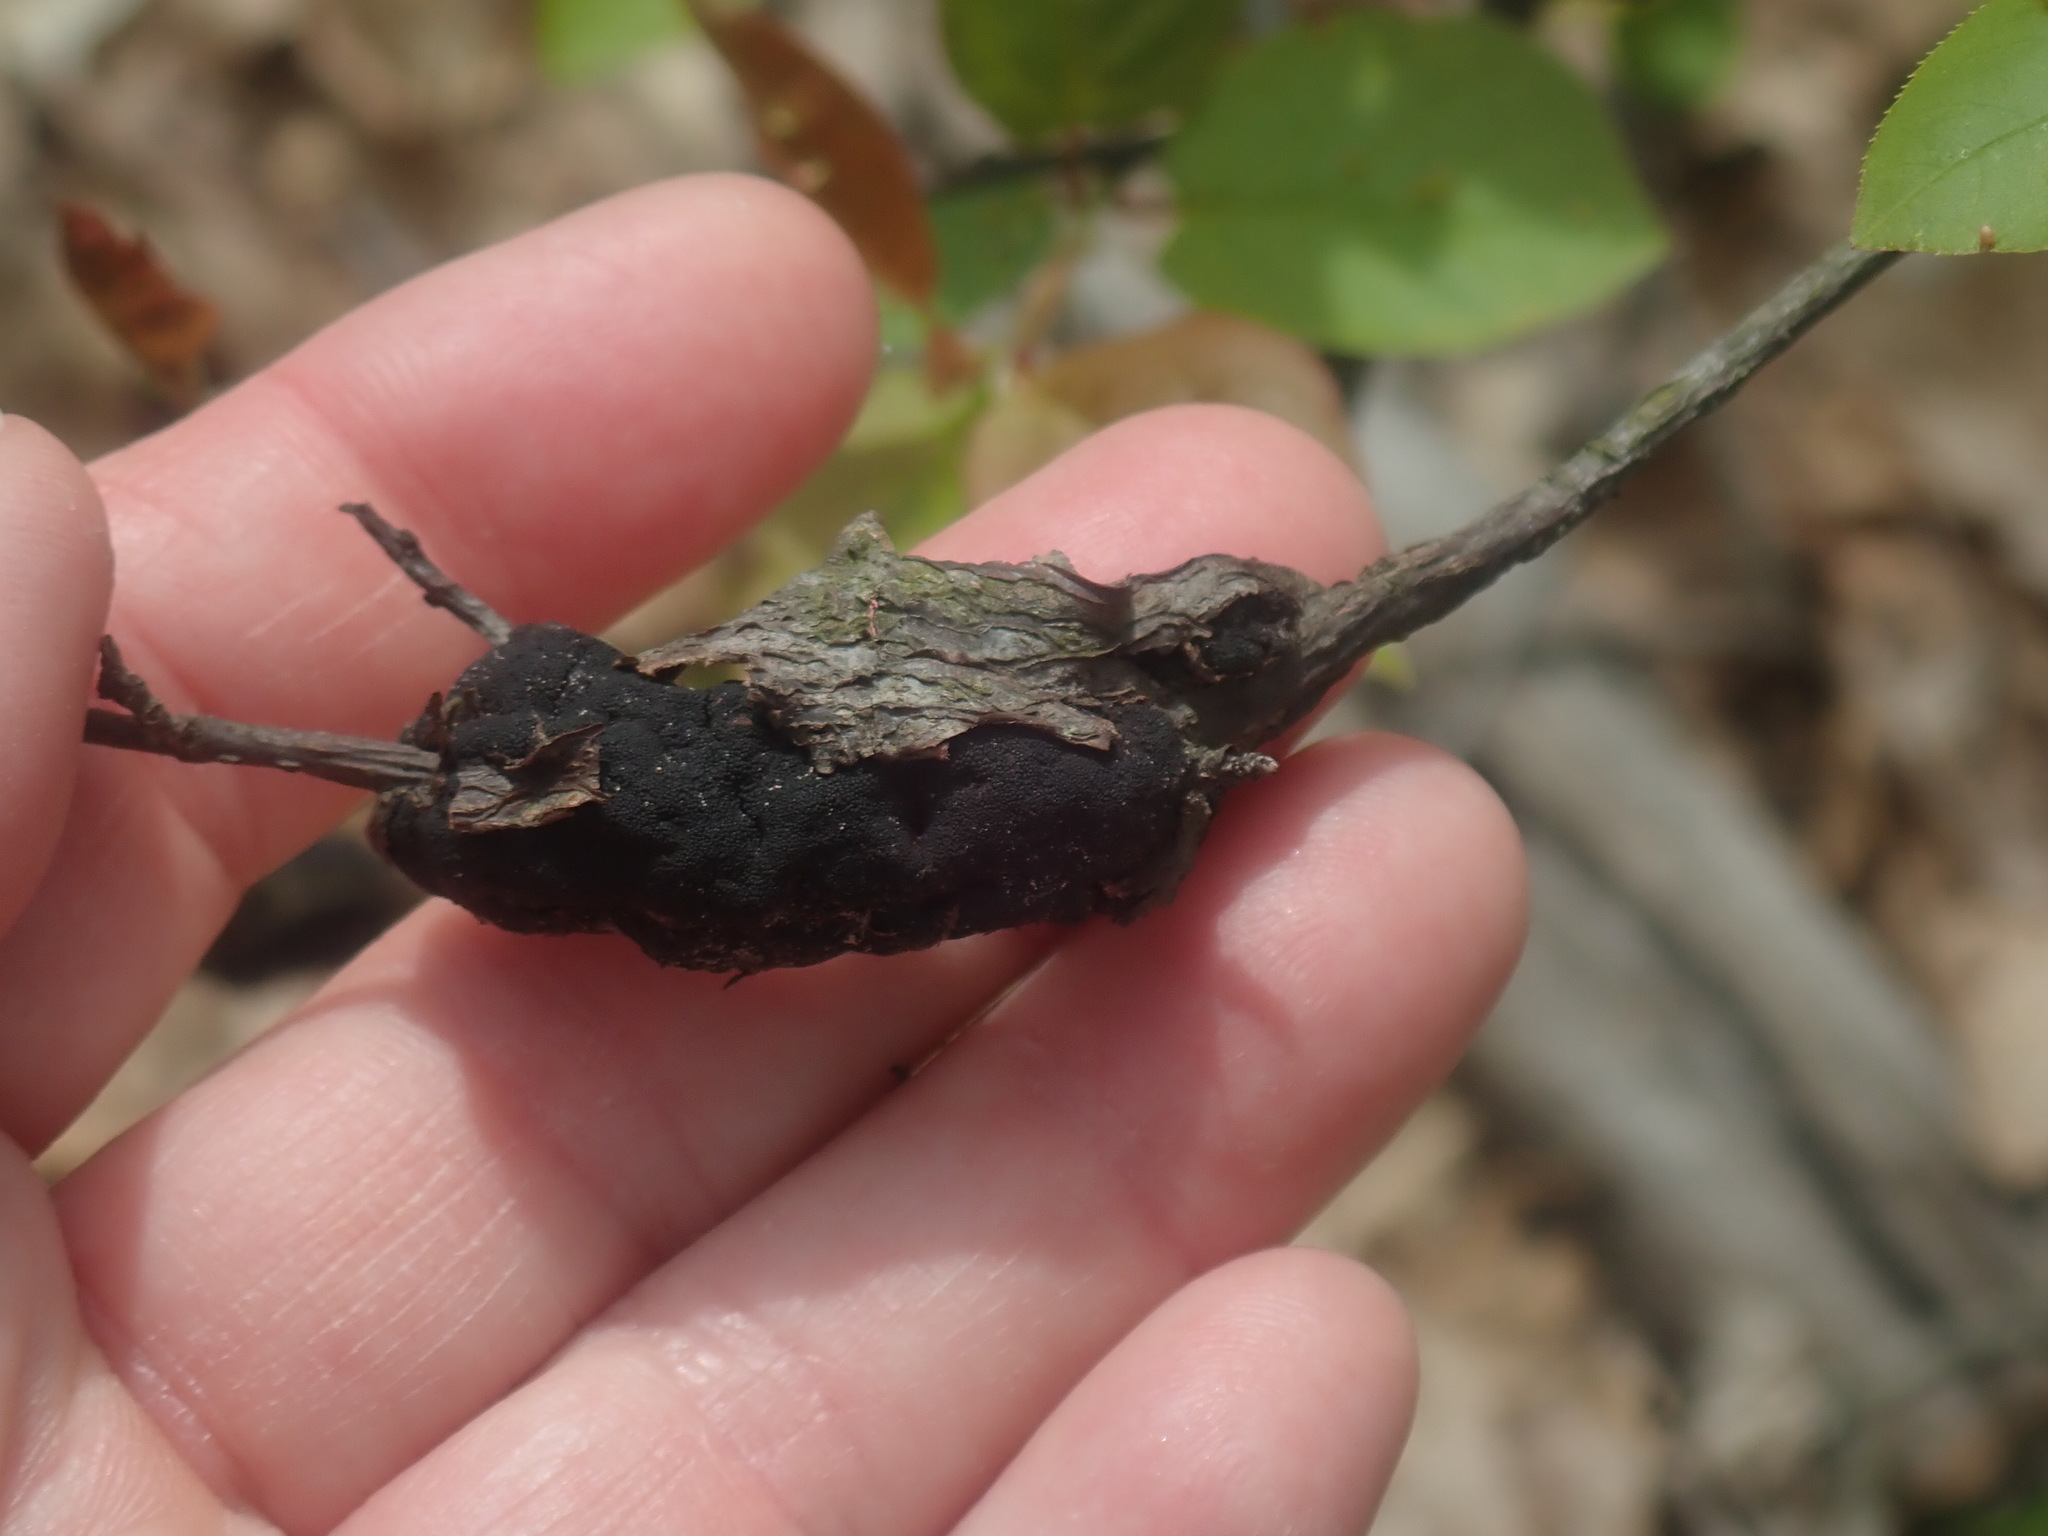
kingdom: Fungi
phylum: Ascomycota
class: Dothideomycetes
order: Venturiales
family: Venturiaceae
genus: Apiosporina
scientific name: Apiosporina morbosa
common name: Black knot
